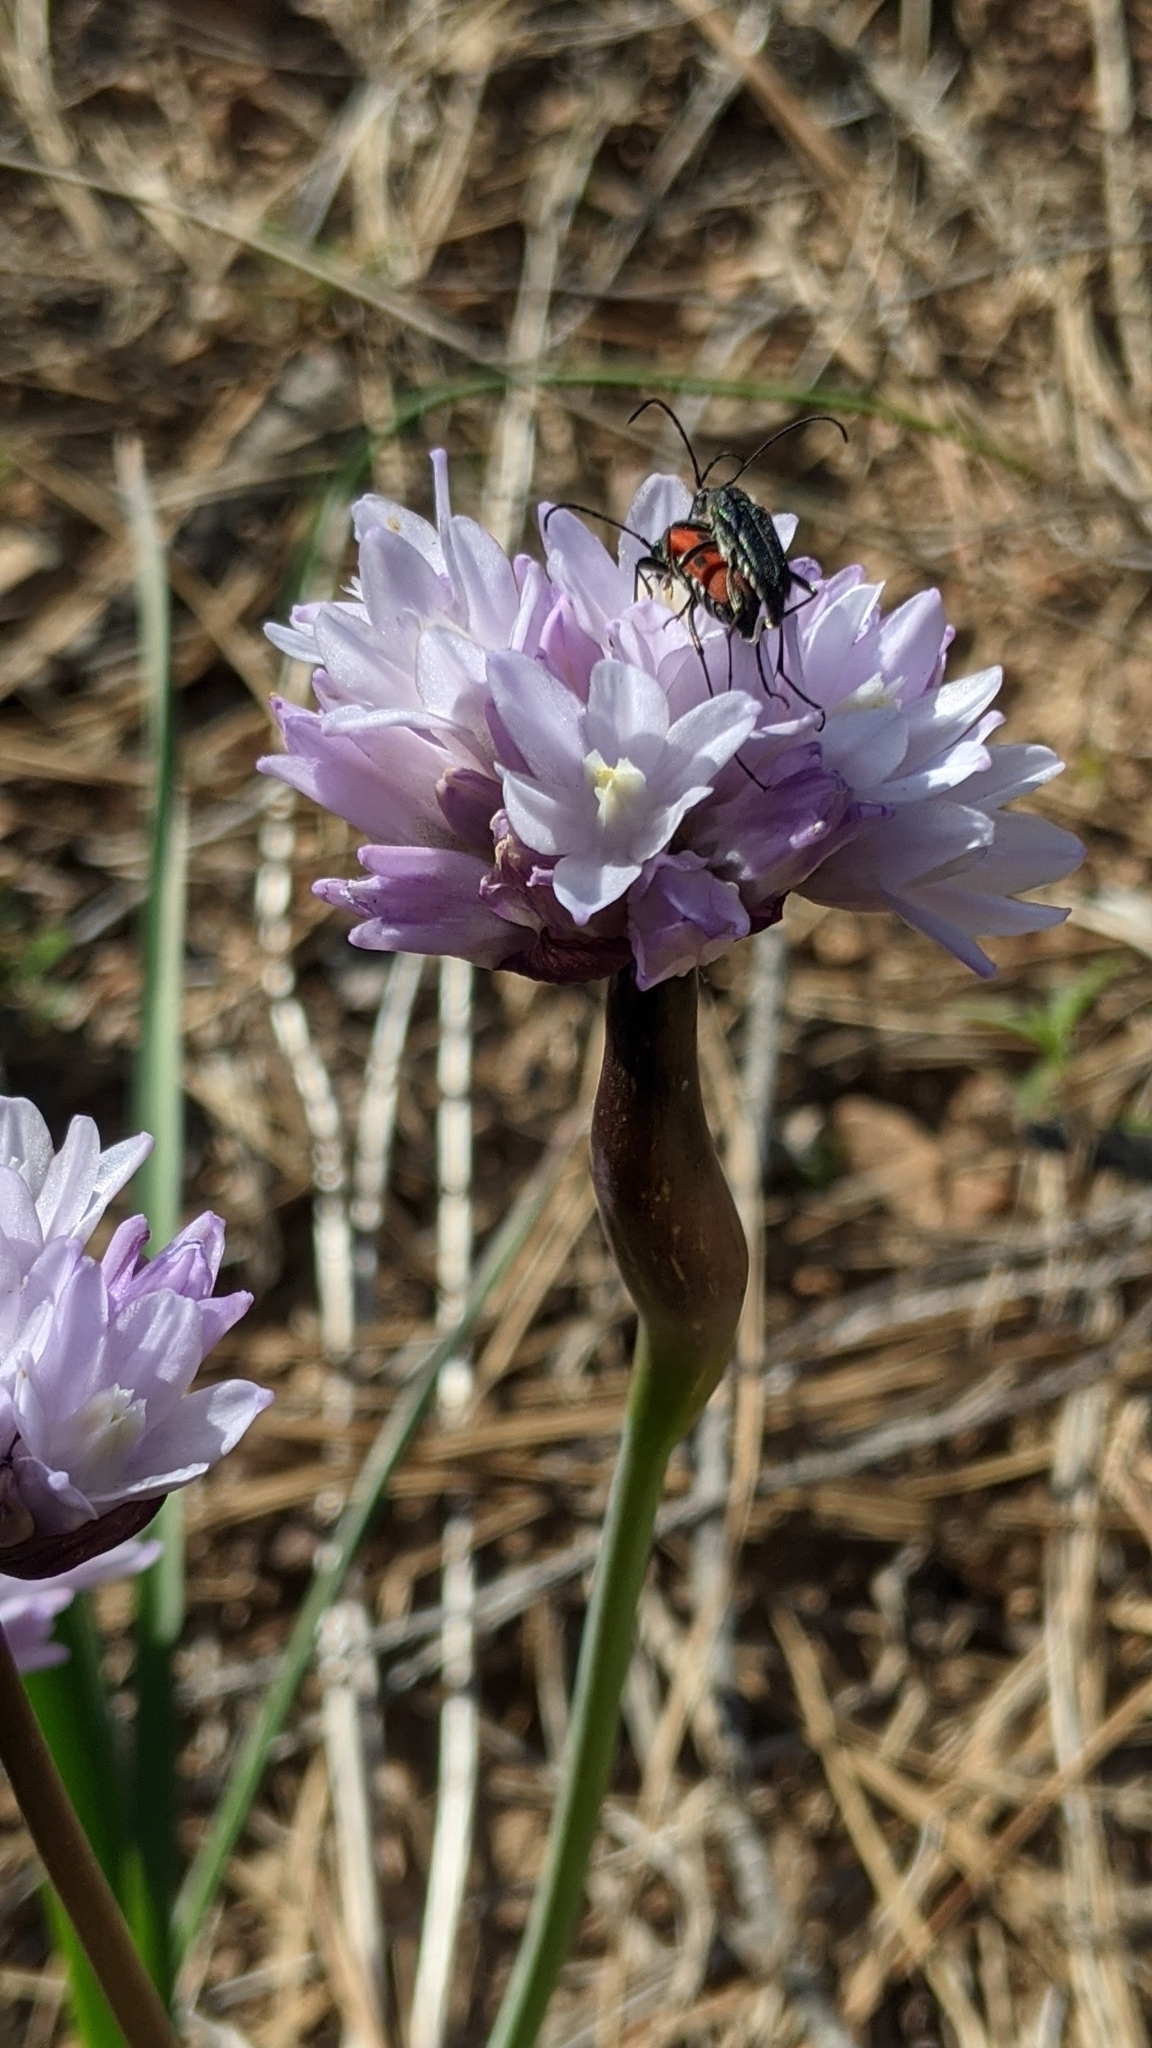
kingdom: Plantae
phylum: Tracheophyta
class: Liliopsida
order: Asparagales
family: Asparagaceae
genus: Dipterostemon
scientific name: Dipterostemon capitatus
